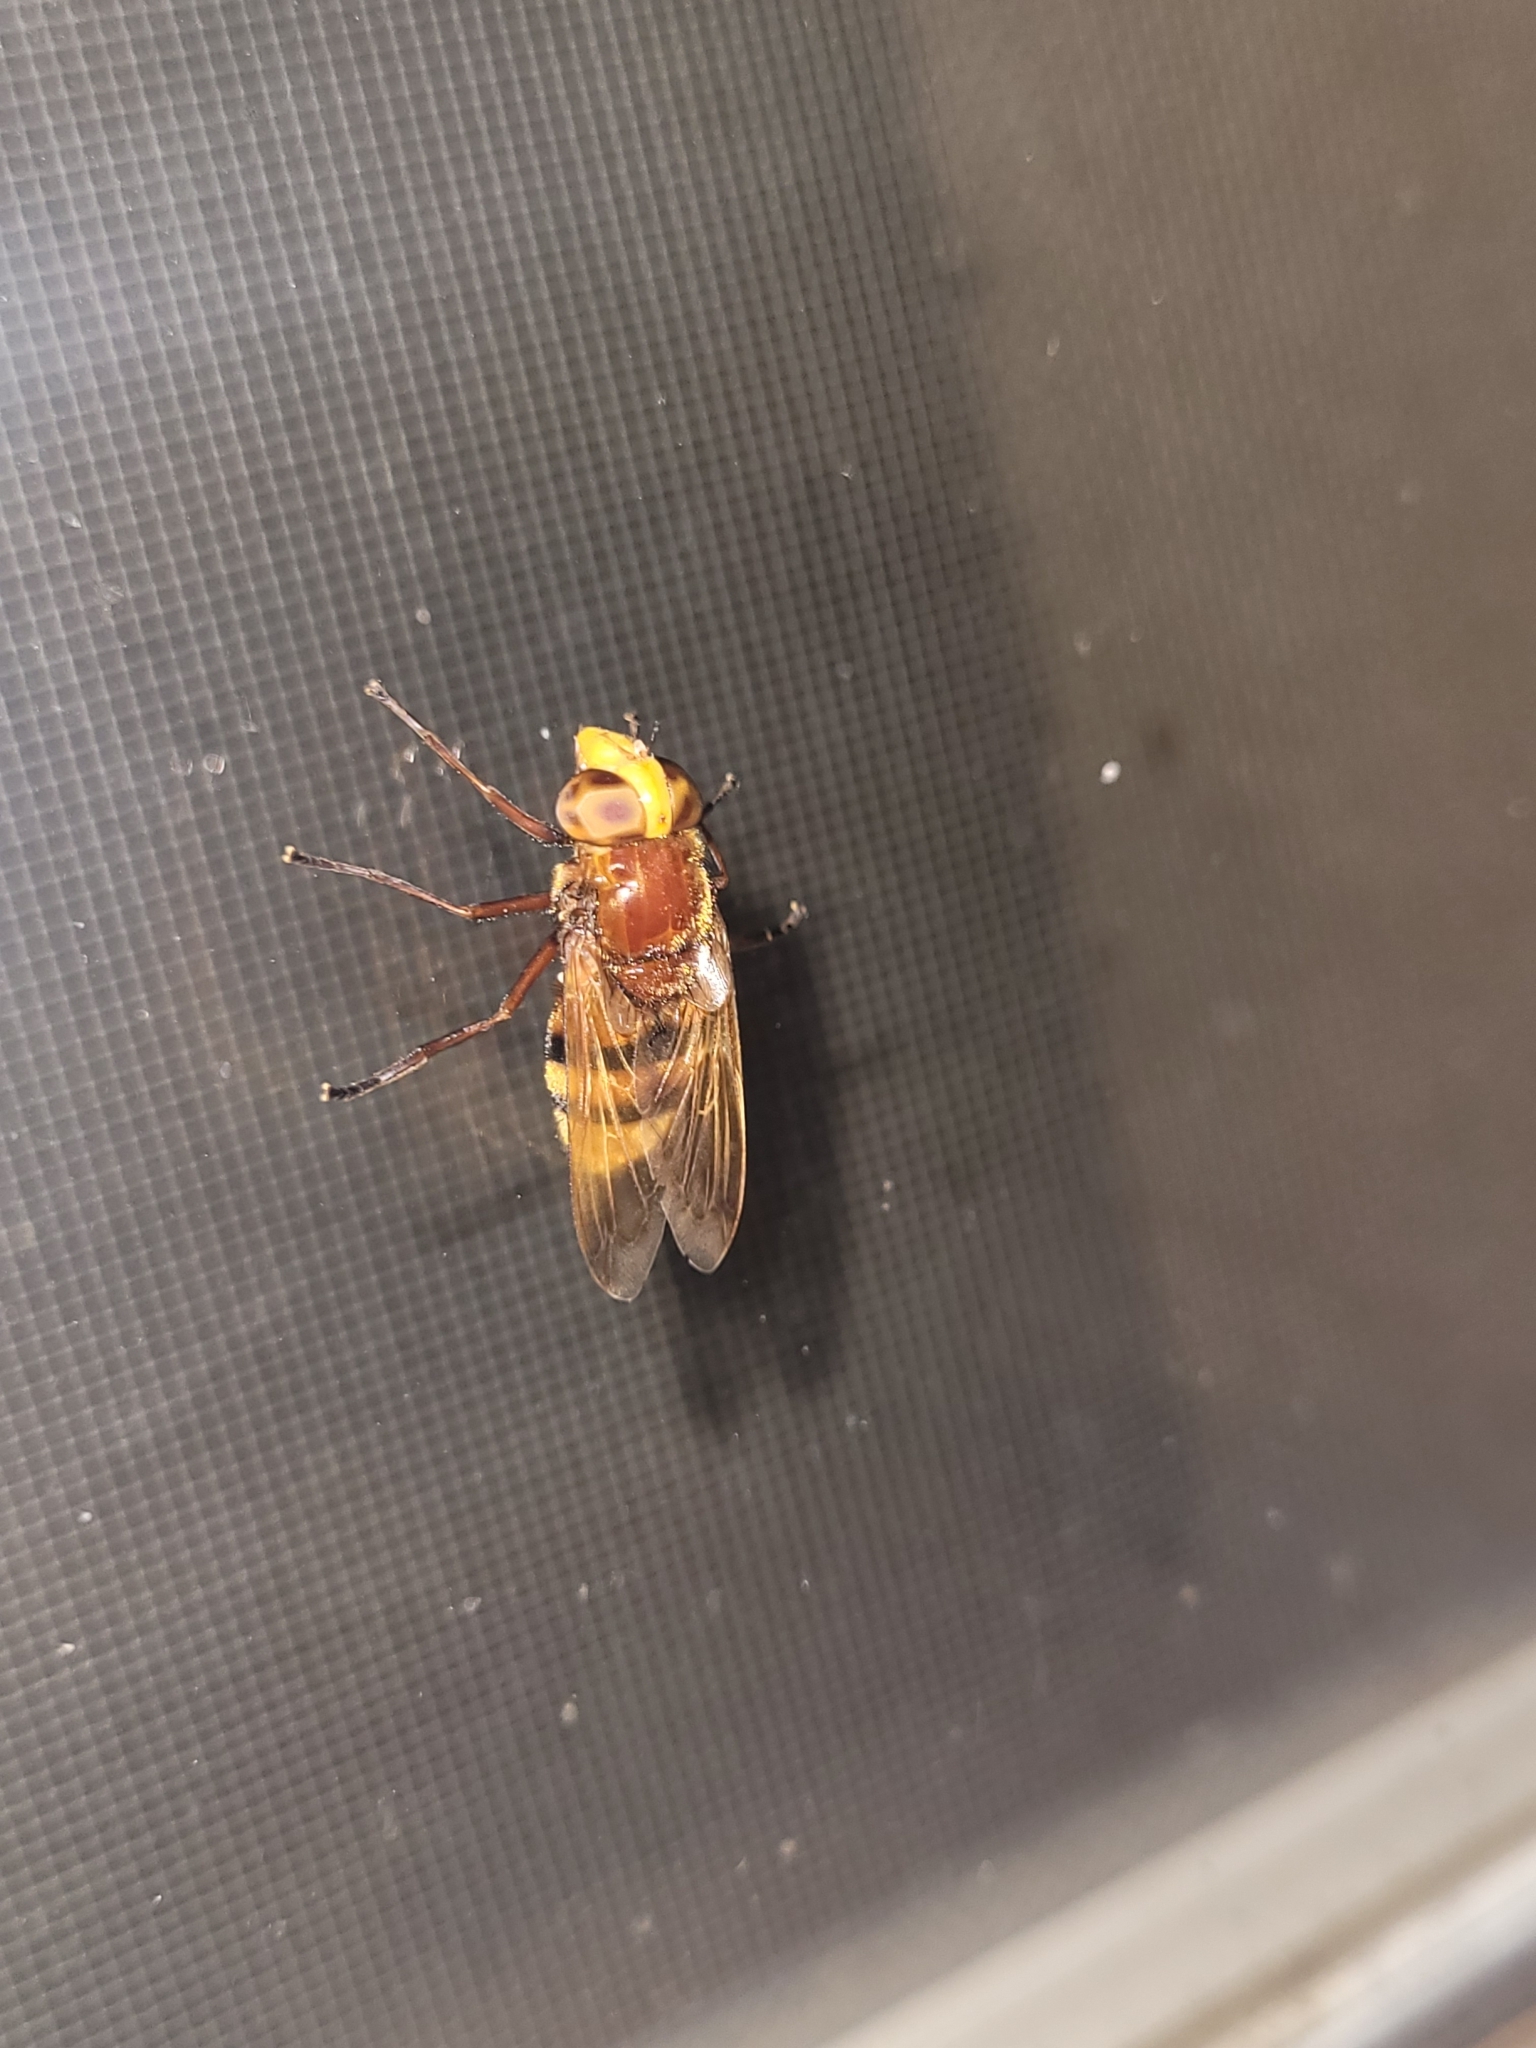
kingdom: Animalia
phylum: Arthropoda
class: Insecta
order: Diptera
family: Syrphidae
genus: Volucella
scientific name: Volucella zonaria
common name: Hornet hoverfly
